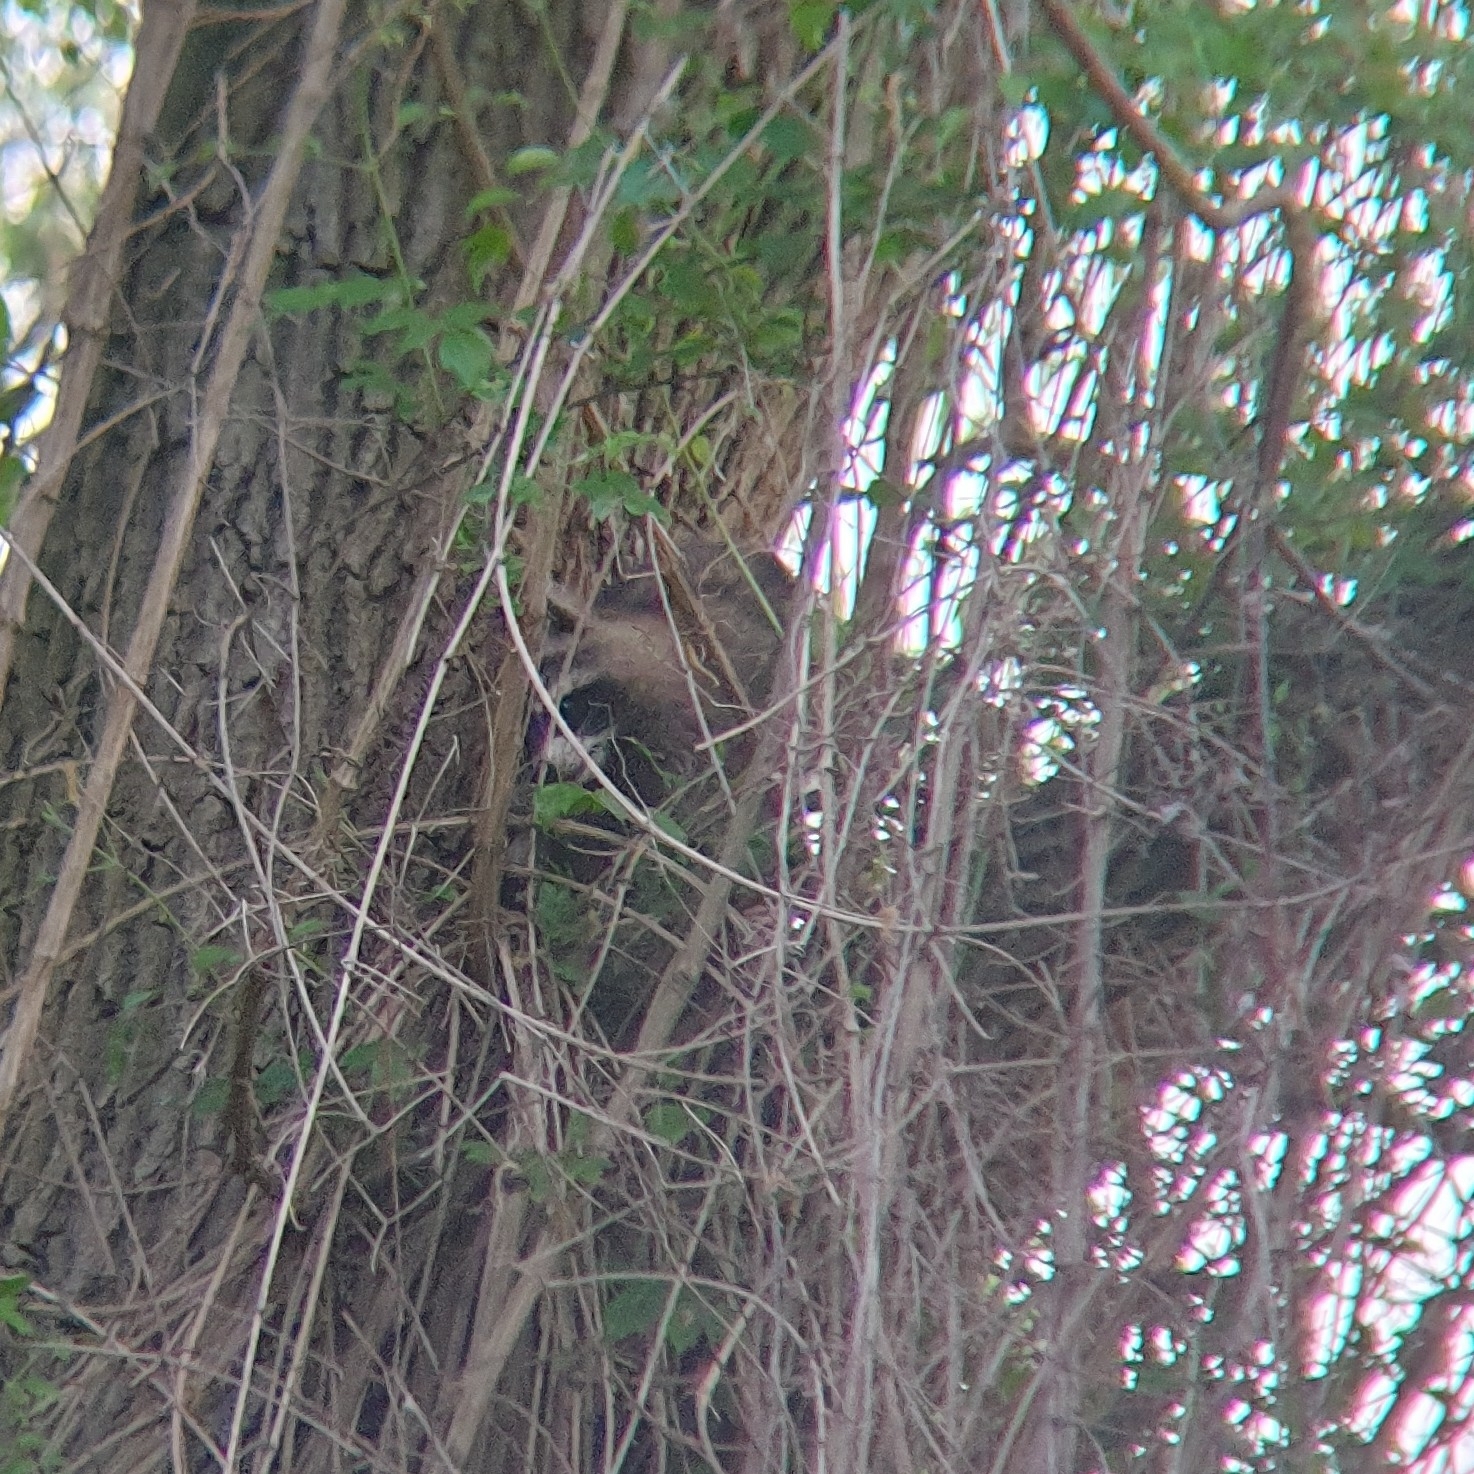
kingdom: Animalia
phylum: Chordata
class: Mammalia
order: Carnivora
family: Procyonidae
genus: Procyon
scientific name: Procyon lotor
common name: Raccoon
